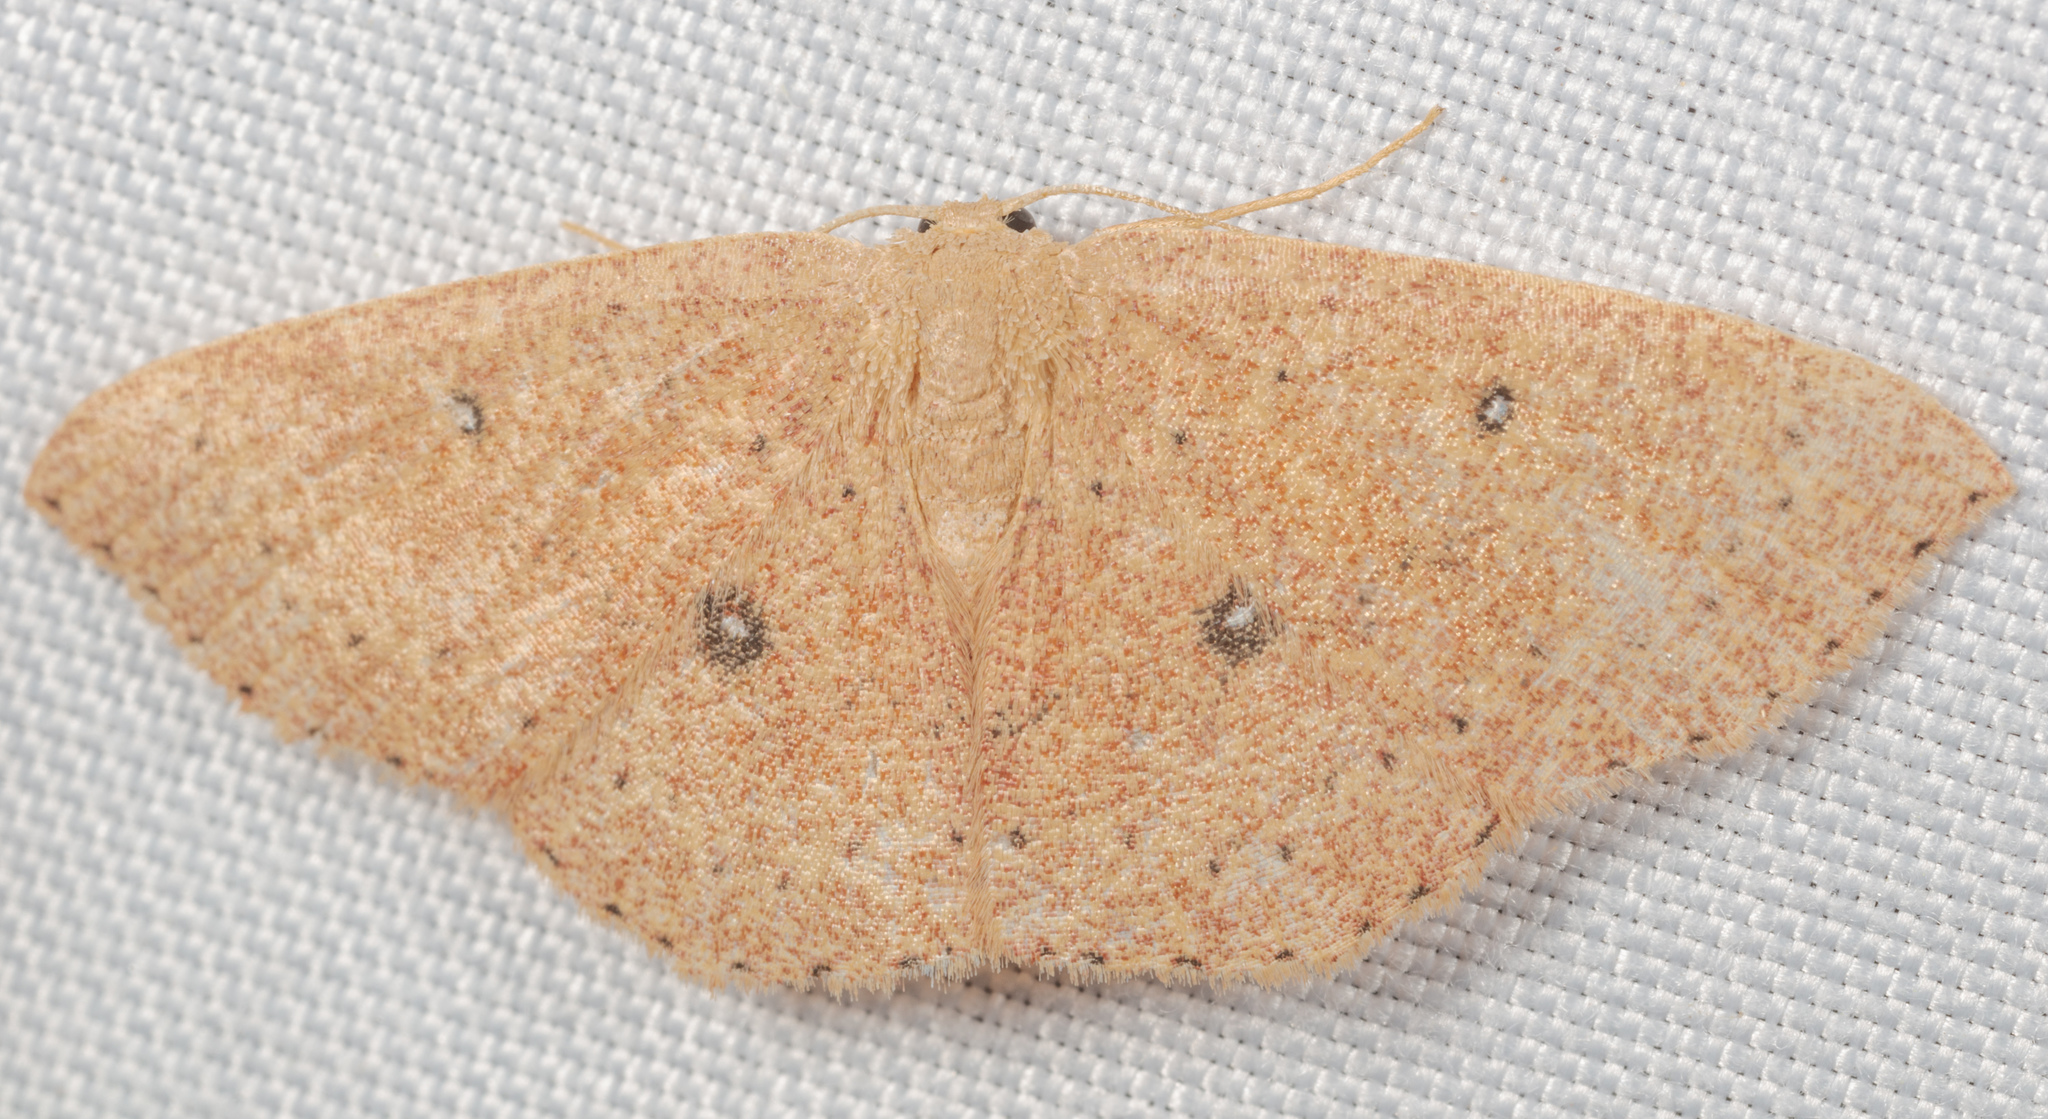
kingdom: Animalia
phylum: Arthropoda
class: Insecta
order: Lepidoptera
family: Geometridae
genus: Cyclophora
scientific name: Cyclophora packardi
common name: Packard's wave
